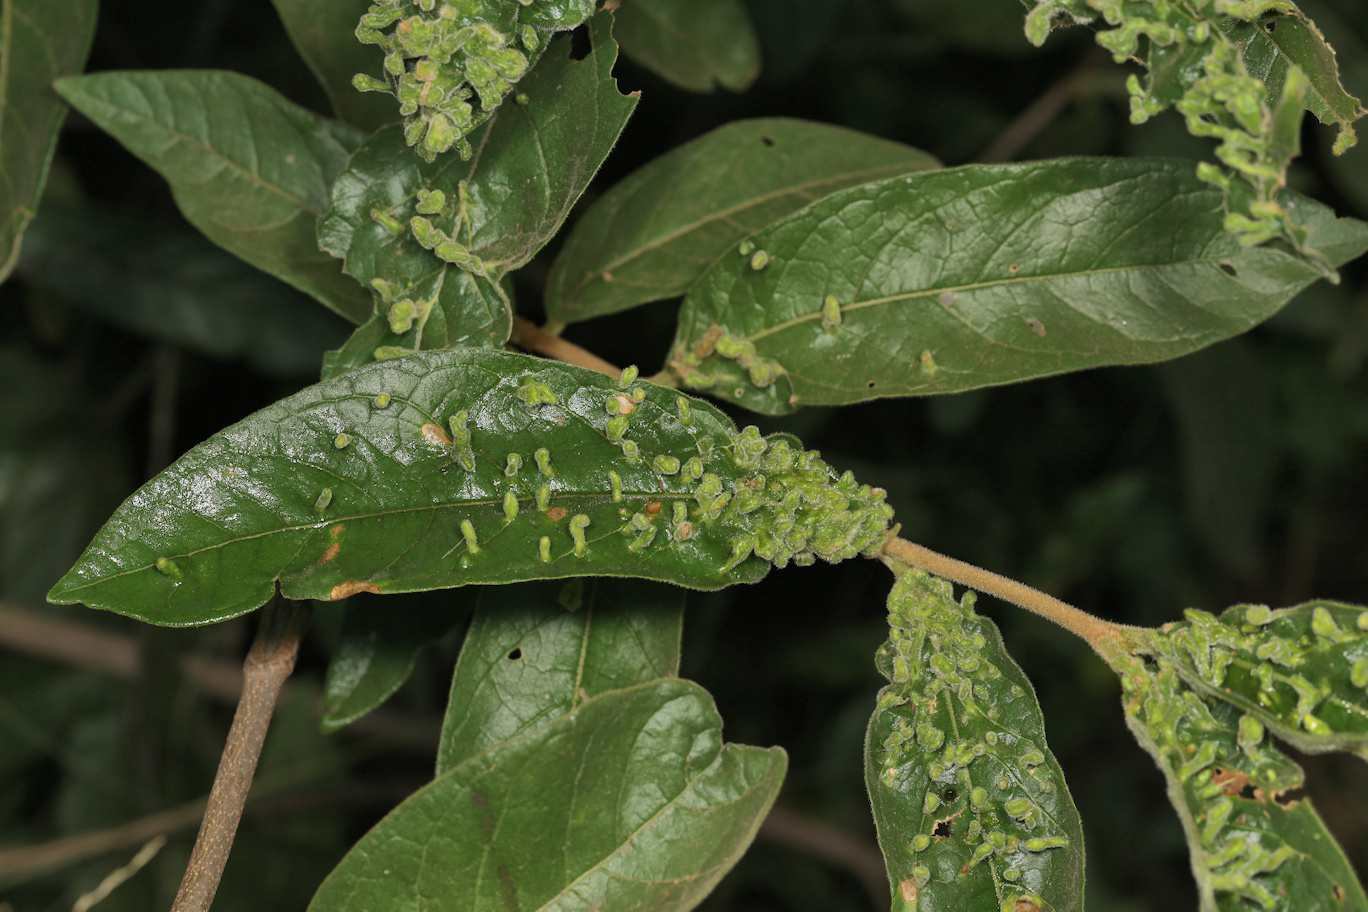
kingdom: Plantae
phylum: Tracheophyta
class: Magnoliopsida
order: Gentianales
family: Rubiaceae
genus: Vangueria
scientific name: Vangueria infausta
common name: Medlar
